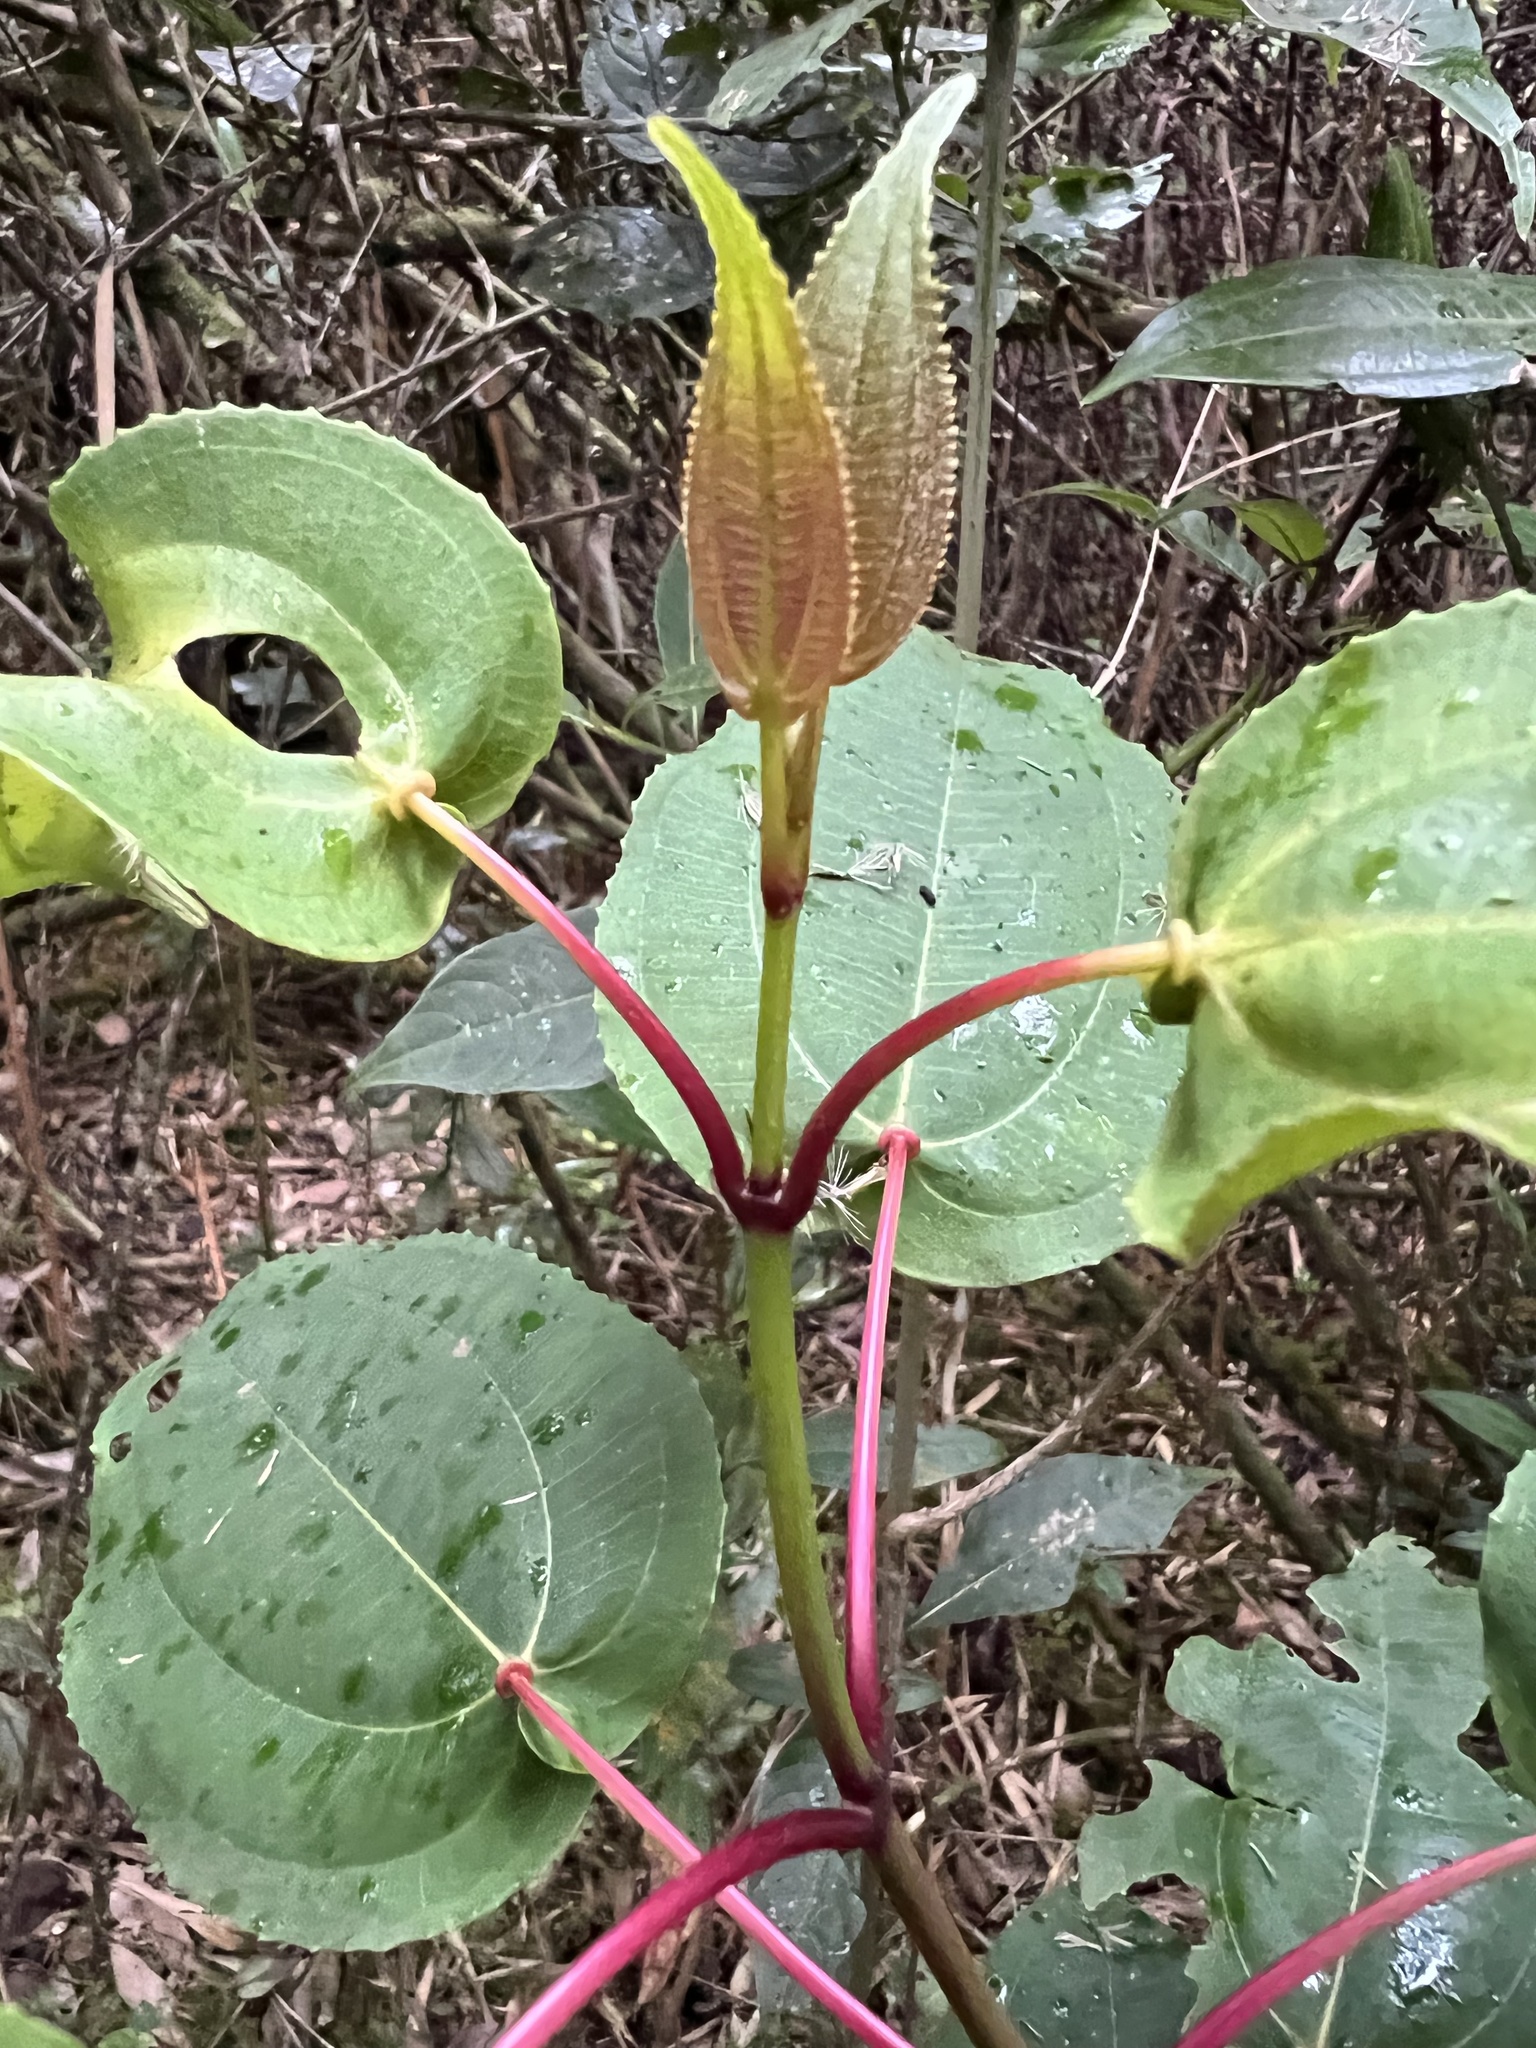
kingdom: Plantae
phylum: Tracheophyta
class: Magnoliopsida
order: Myrtales
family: Melastomataceae
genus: Axinaea
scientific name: Axinaea scutigera
